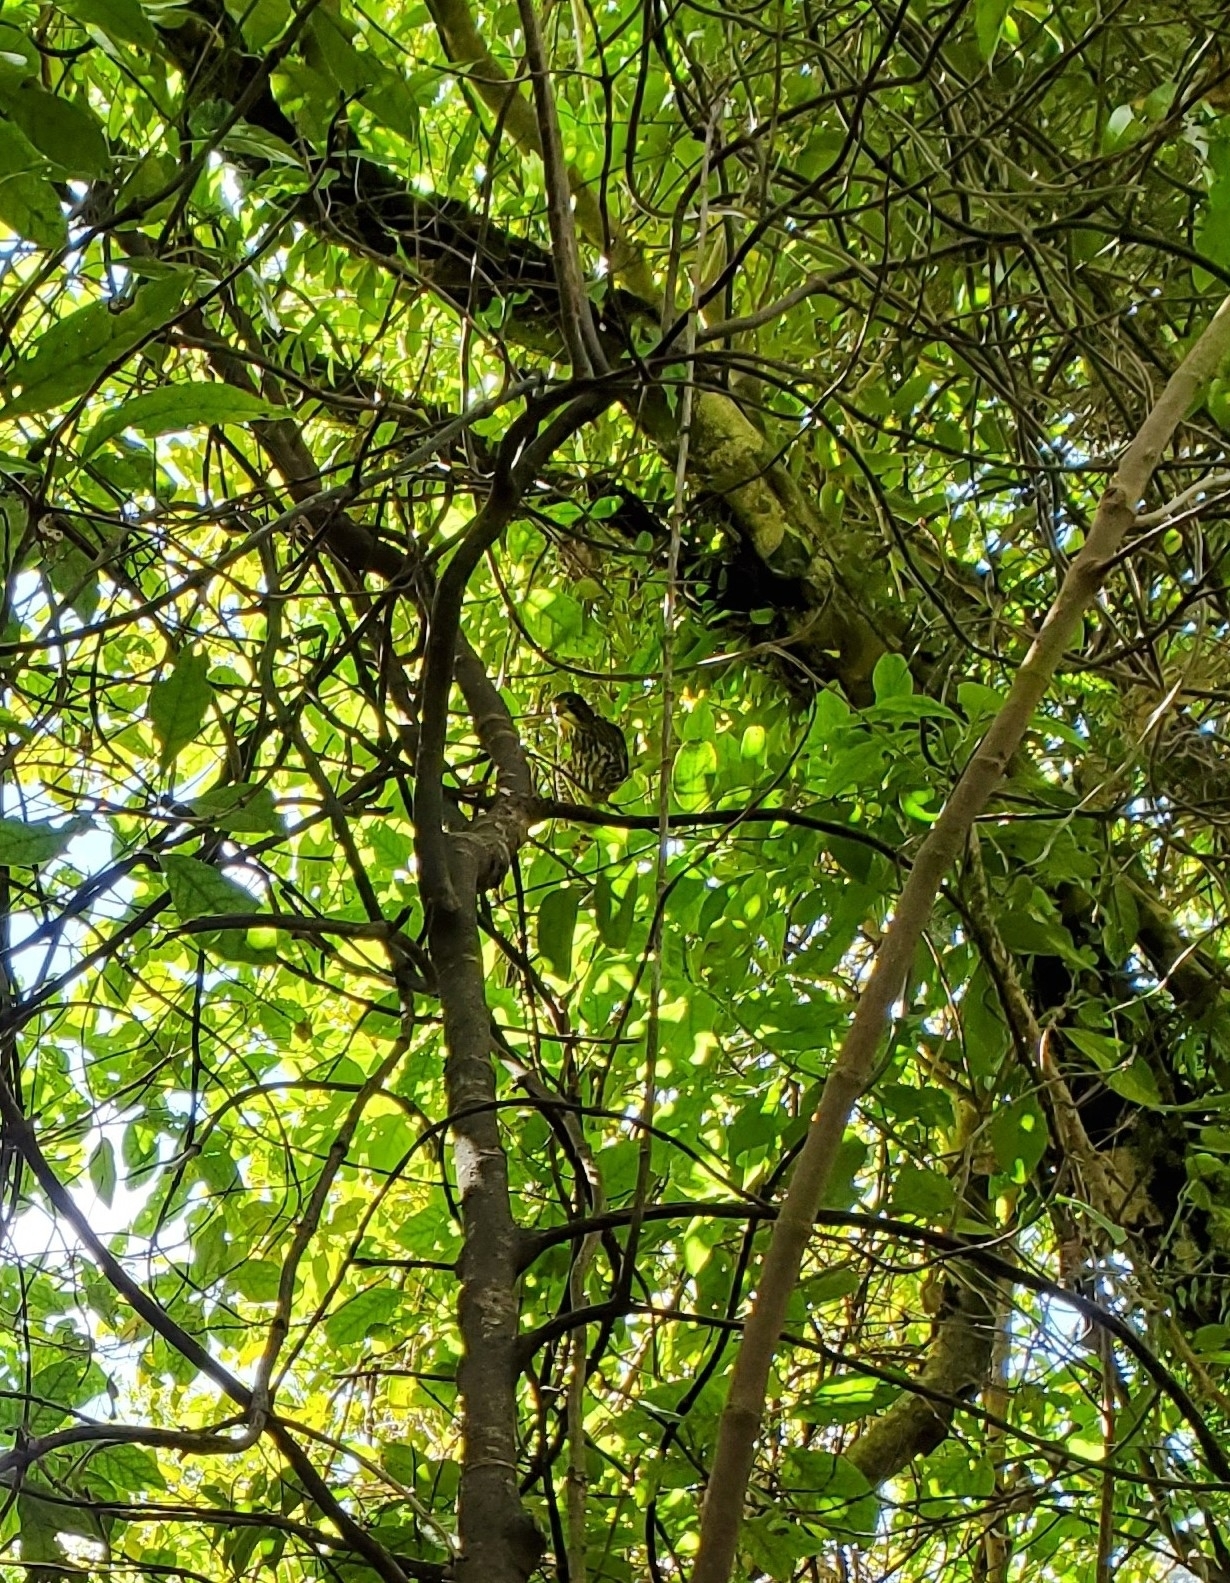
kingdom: Animalia
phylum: Chordata
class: Aves
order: Falconiformes
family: Falconidae
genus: Falco
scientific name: Falco novaeseelandiae
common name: New zealand falcon
